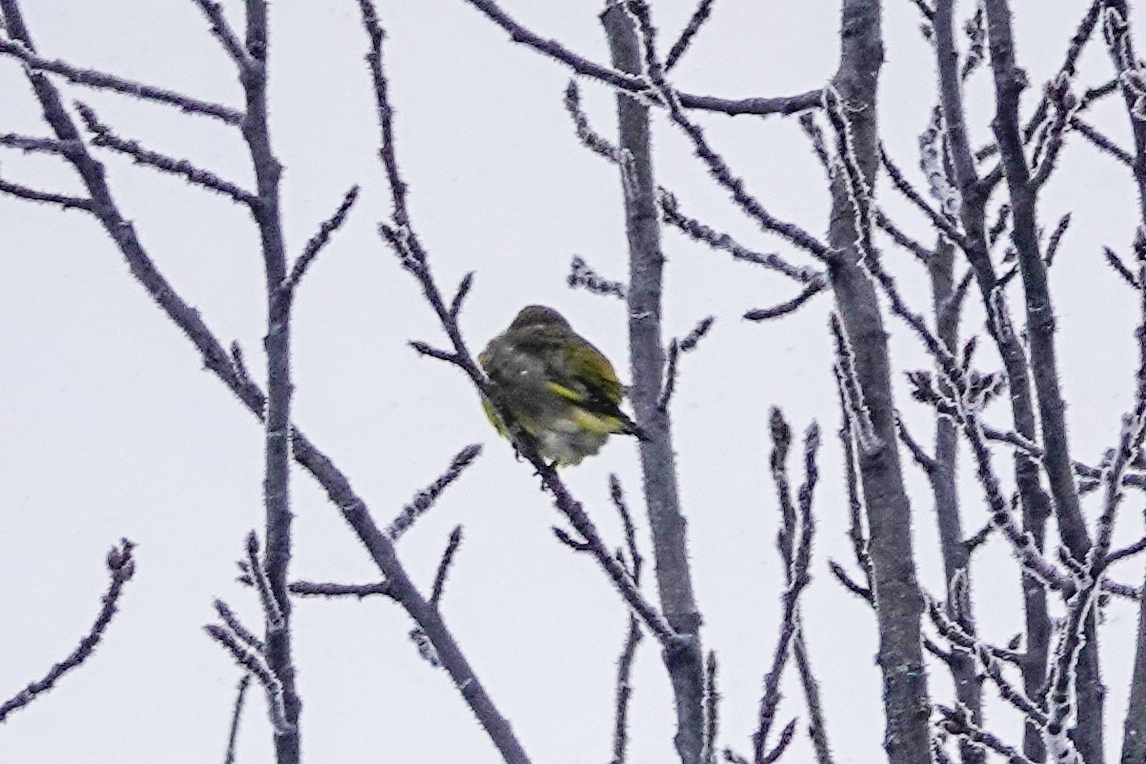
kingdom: Plantae
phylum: Tracheophyta
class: Liliopsida
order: Poales
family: Poaceae
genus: Chloris
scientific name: Chloris chloris
